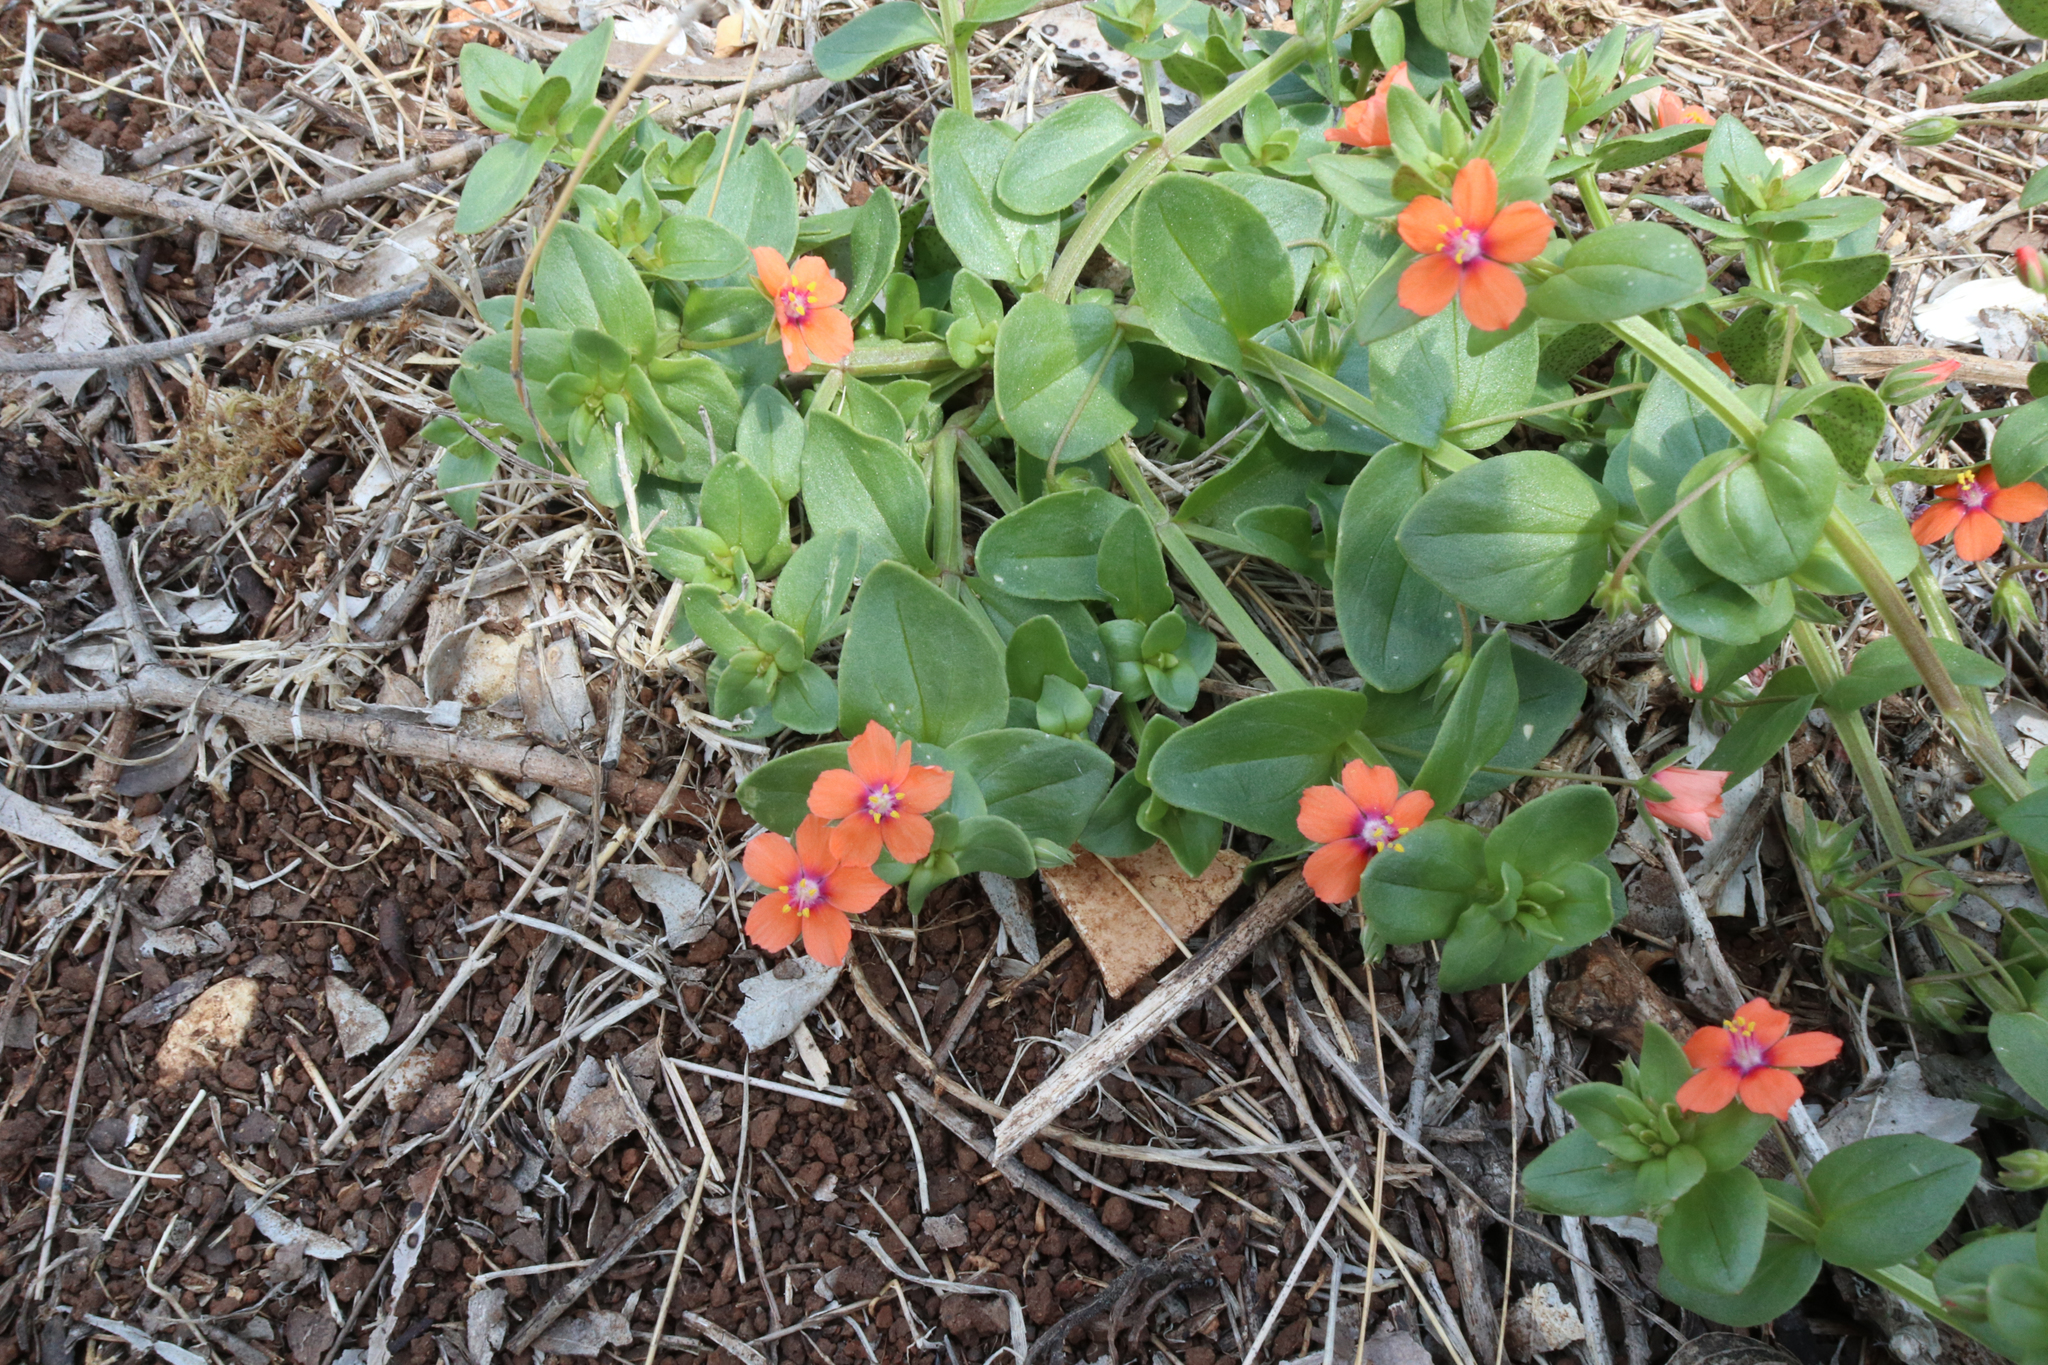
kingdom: Plantae
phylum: Tracheophyta
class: Magnoliopsida
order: Ericales
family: Primulaceae
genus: Lysimachia
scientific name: Lysimachia arvensis
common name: Scarlet pimpernel
